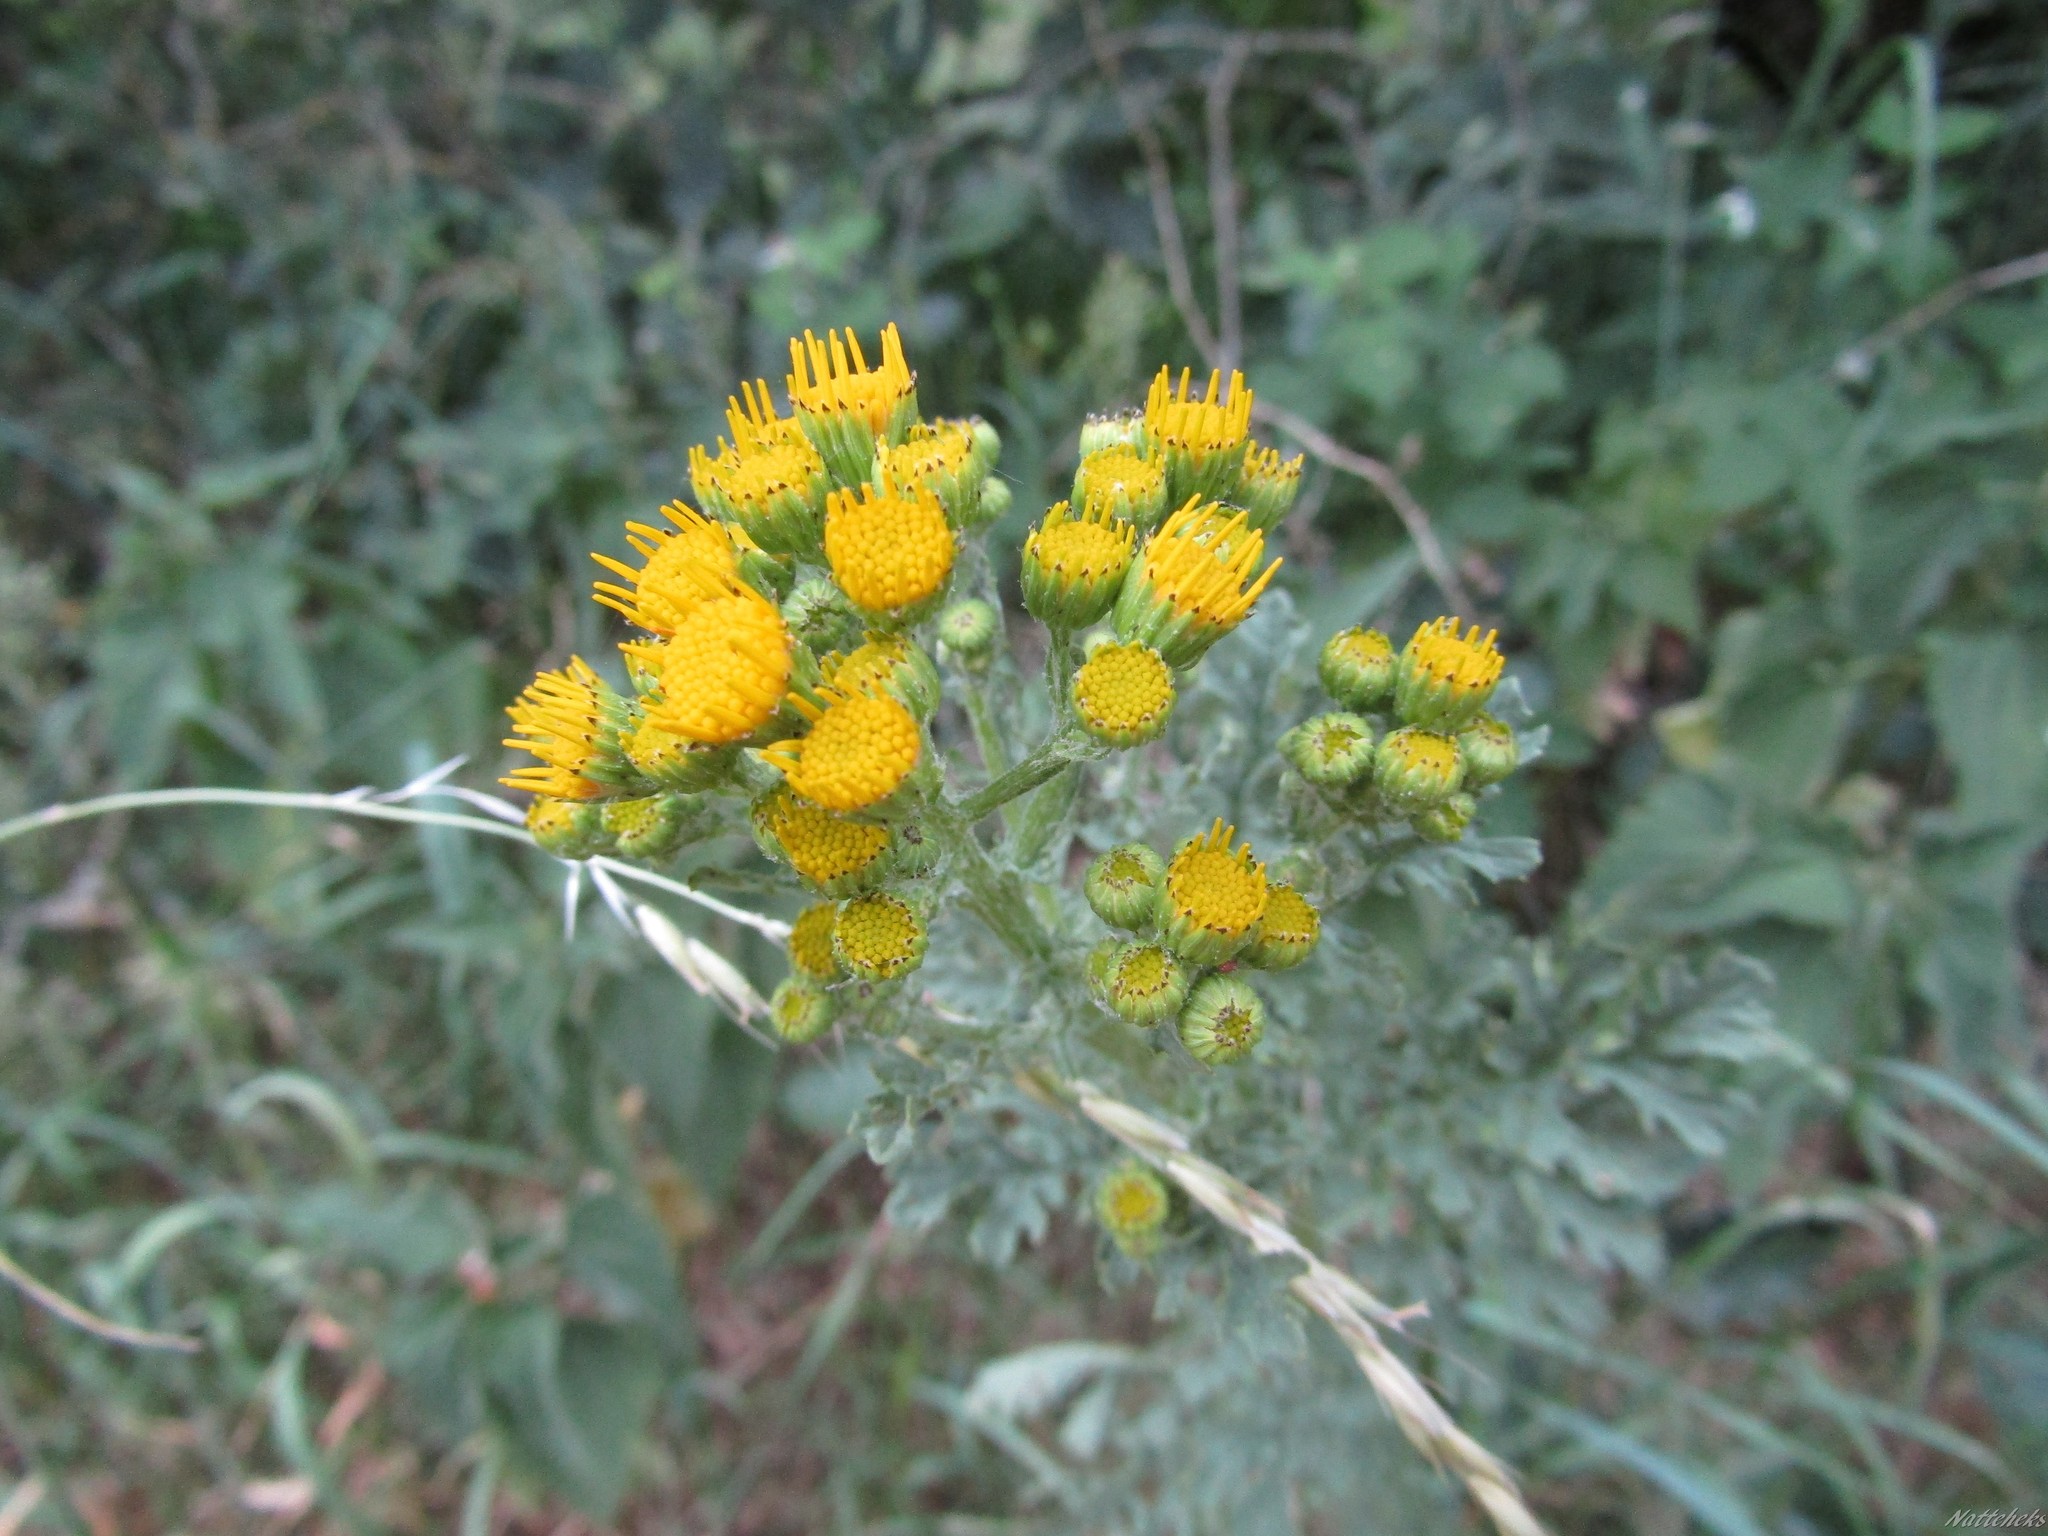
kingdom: Plantae
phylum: Tracheophyta
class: Magnoliopsida
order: Asterales
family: Asteraceae
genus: Jacobaea
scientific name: Jacobaea vulgaris
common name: Stinking willie
